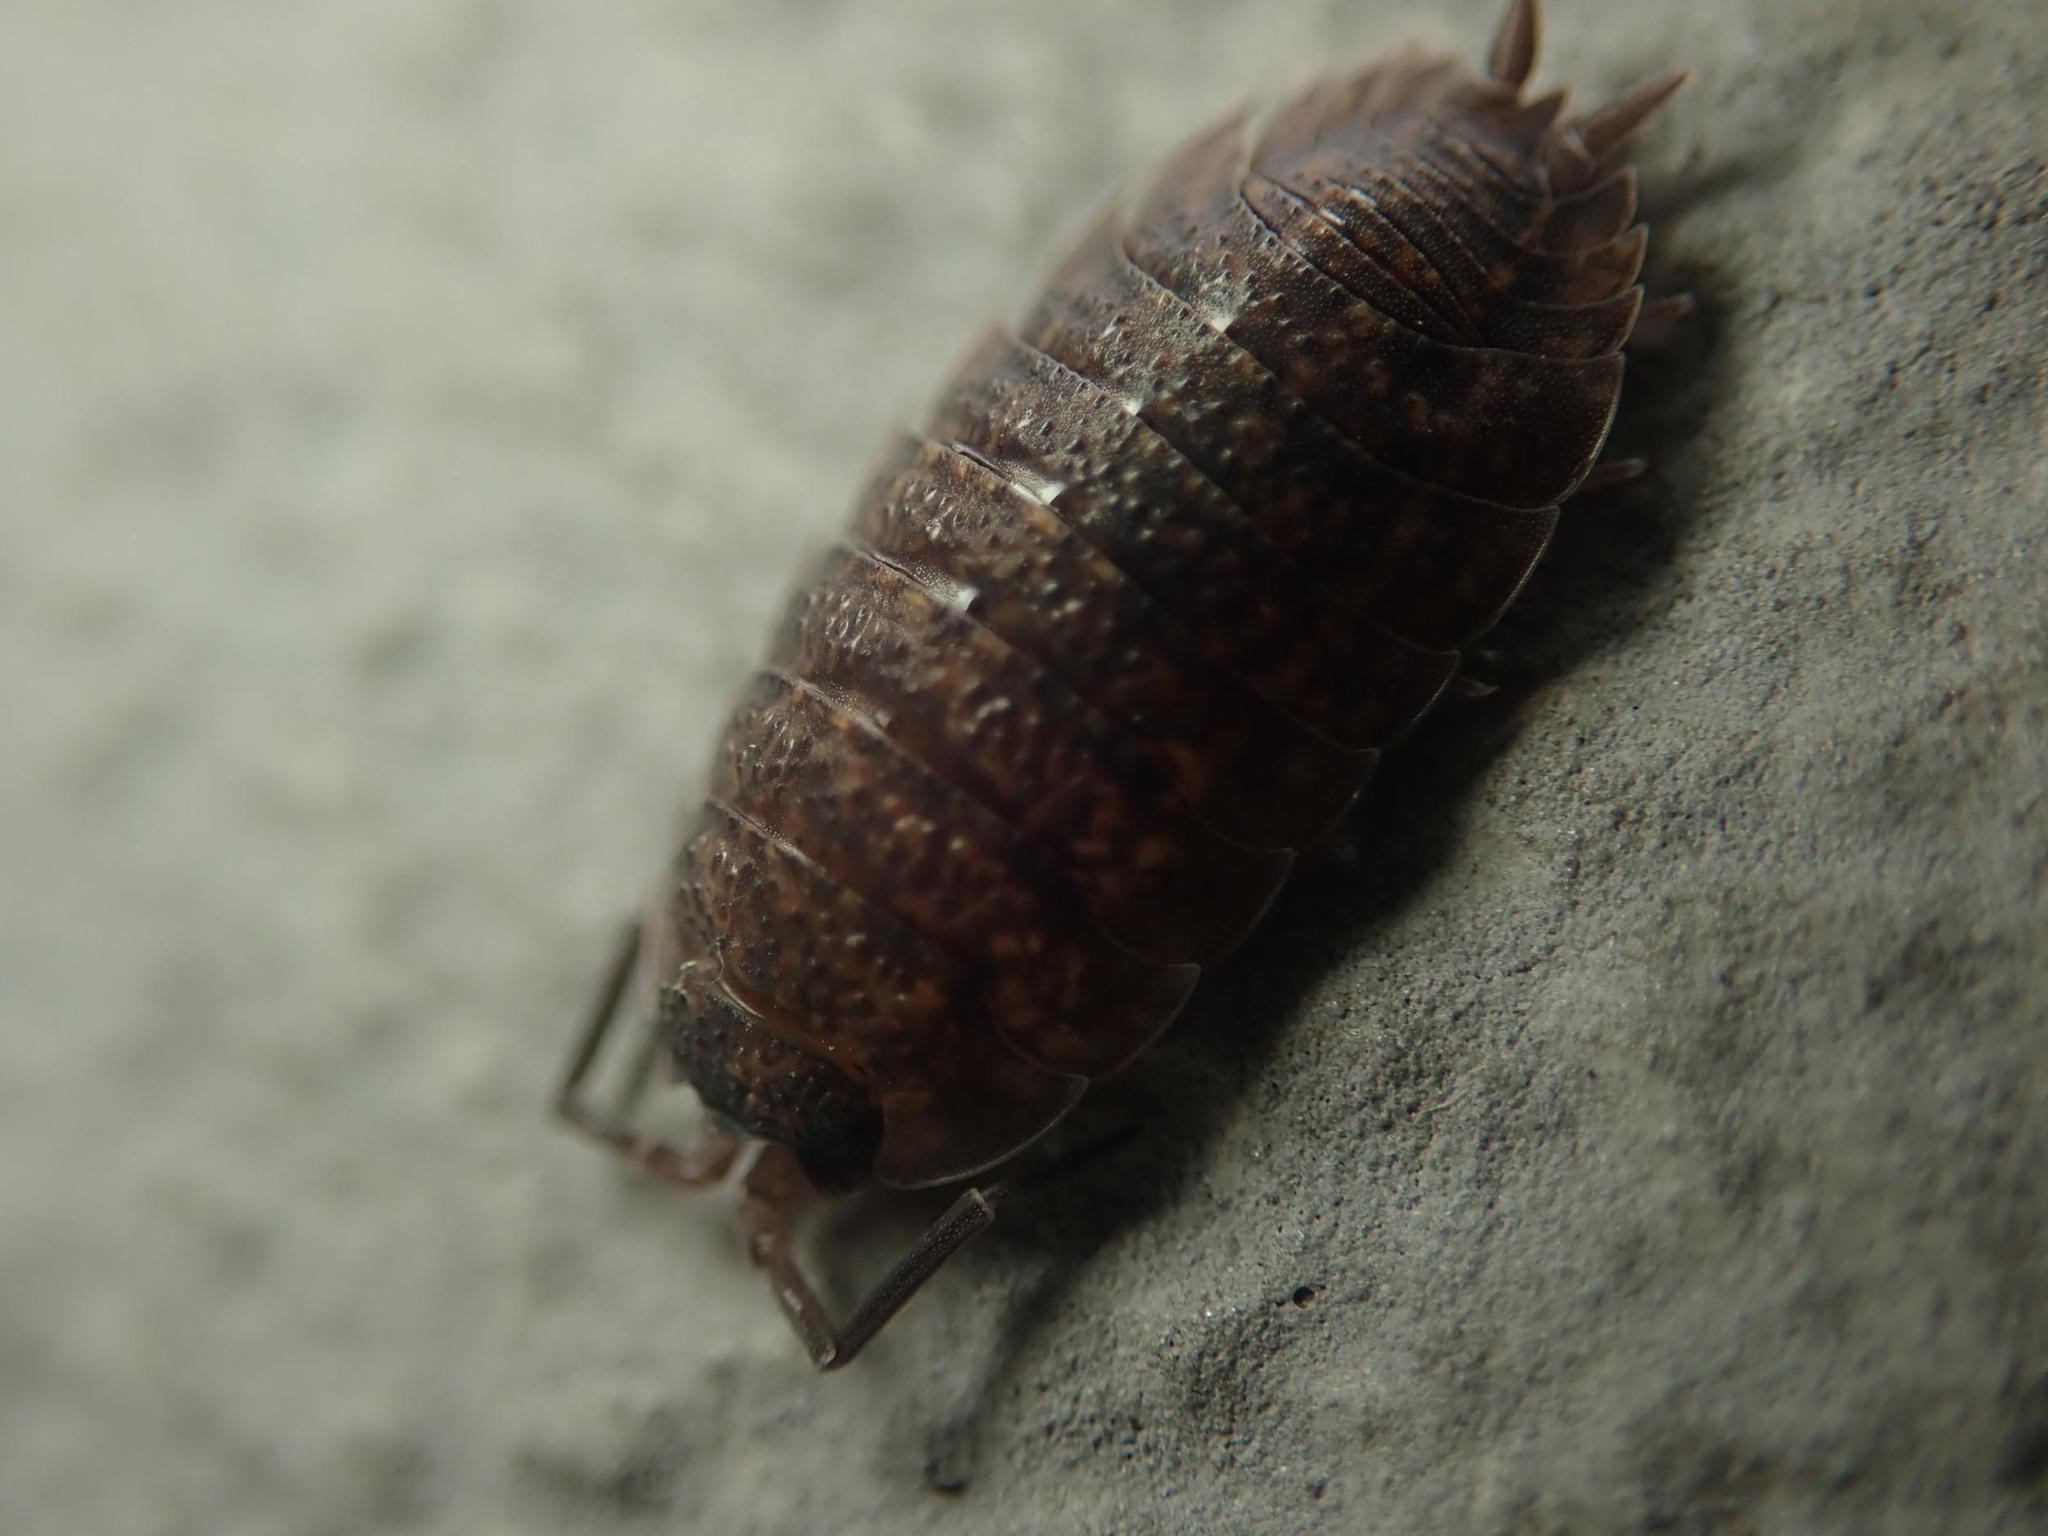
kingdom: Animalia
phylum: Arthropoda
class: Malacostraca
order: Isopoda
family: Porcellionidae
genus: Porcellio
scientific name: Porcellio scaber
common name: Common rough woodlouse
